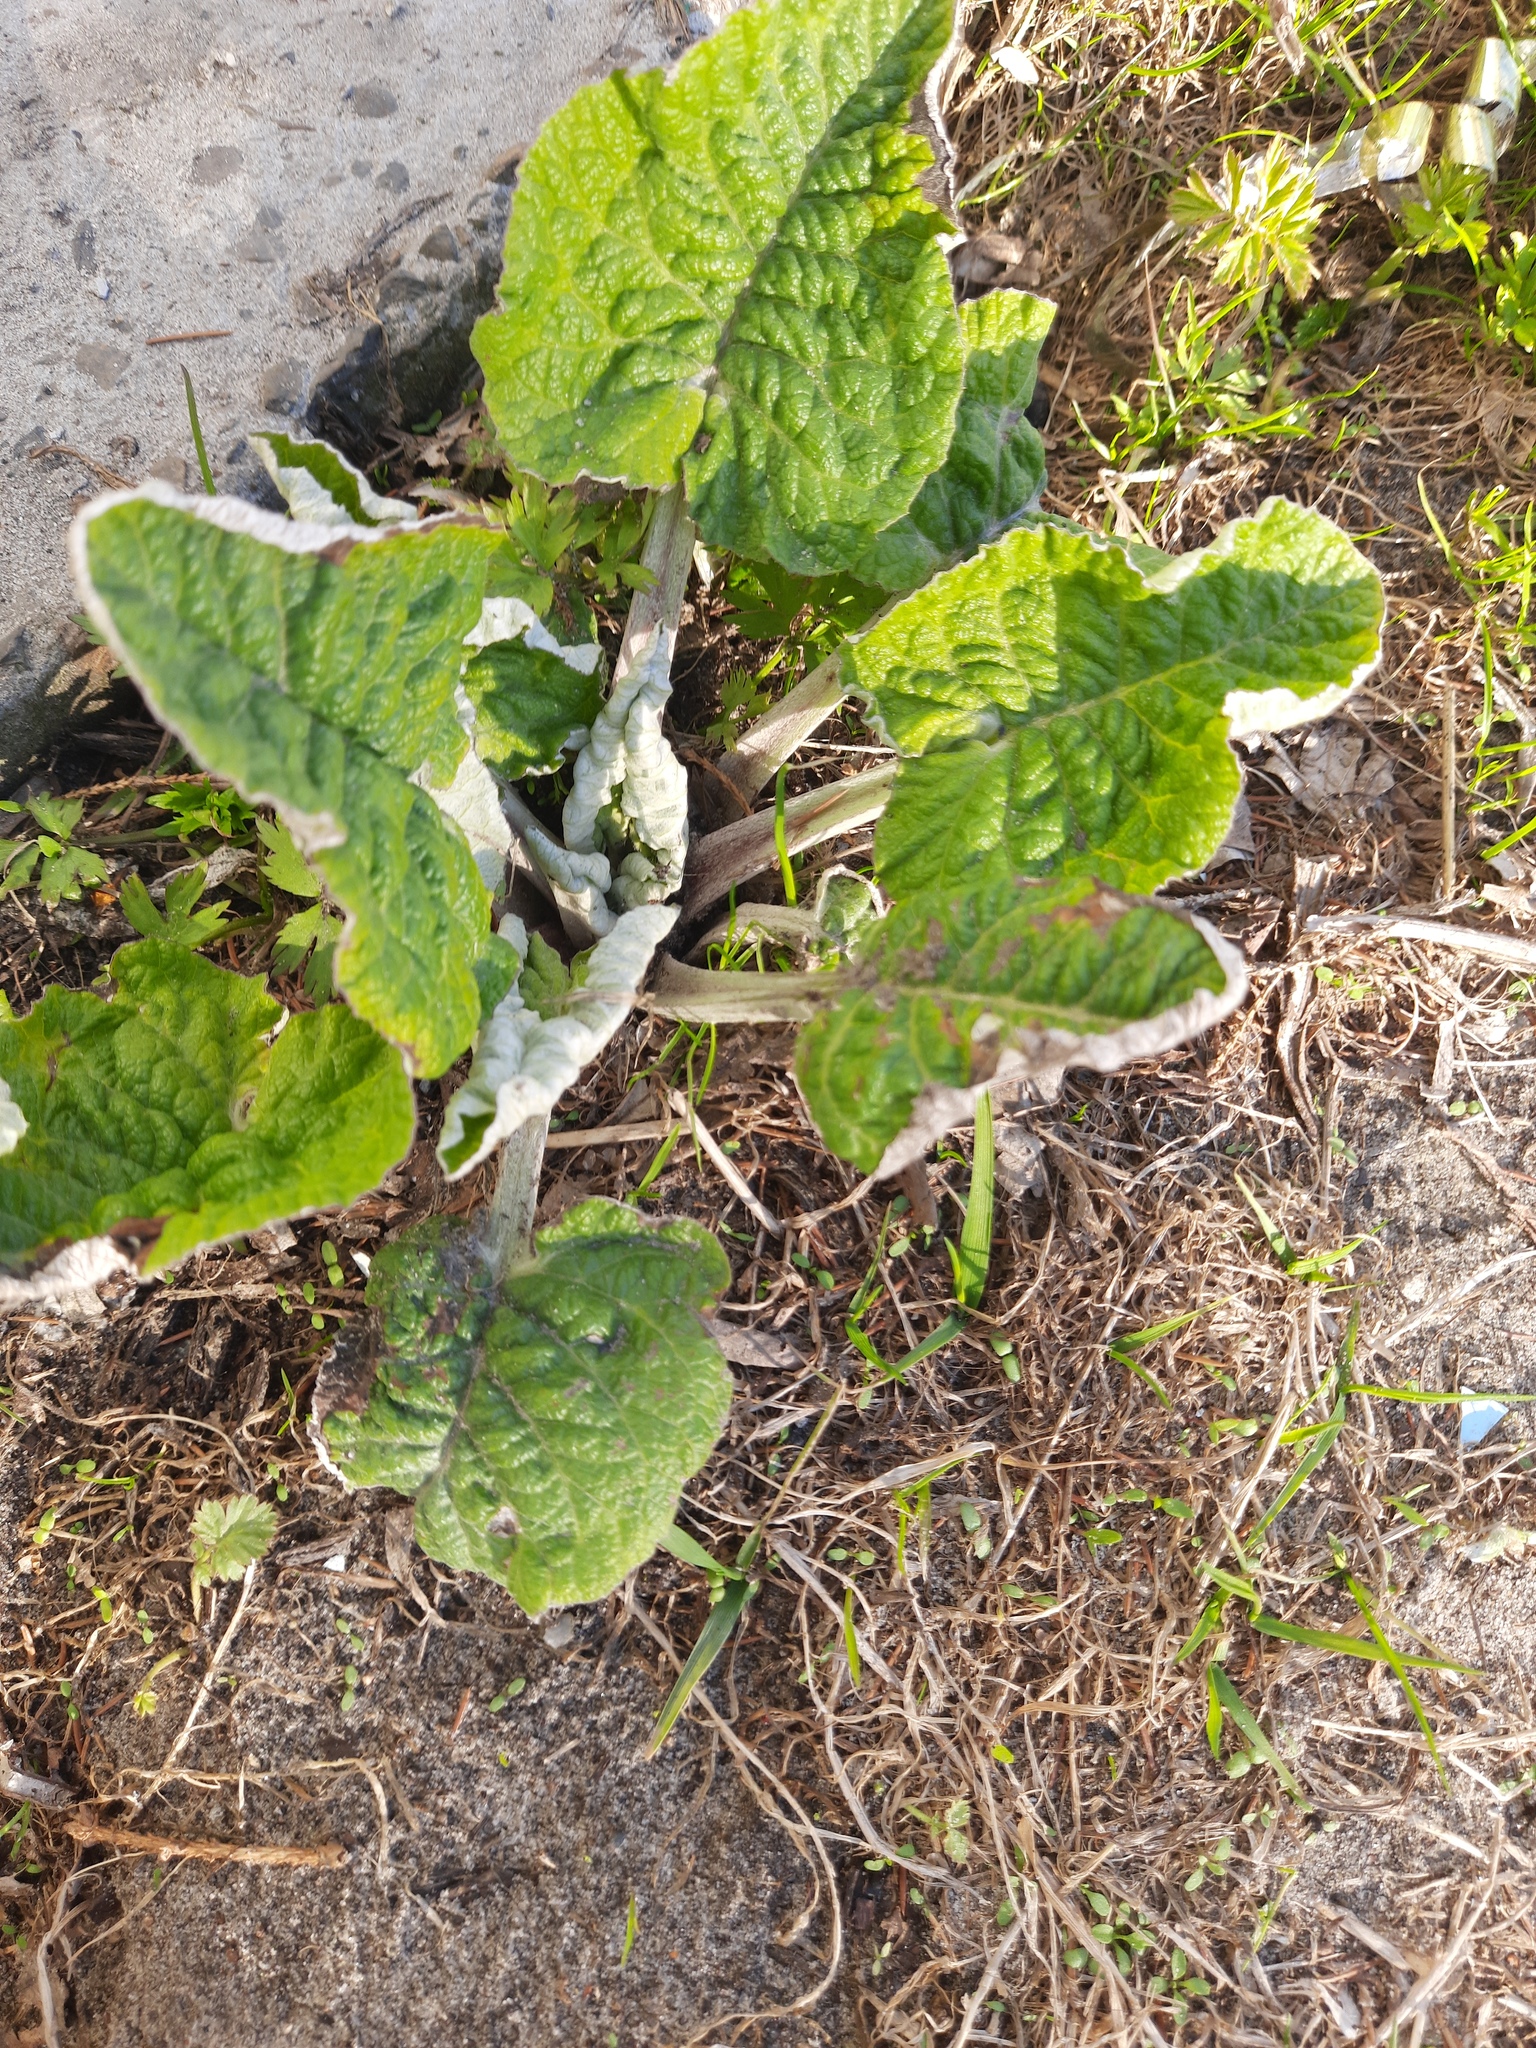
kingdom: Plantae
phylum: Tracheophyta
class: Magnoliopsida
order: Asterales
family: Asteraceae
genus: Arctium
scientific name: Arctium tomentosum
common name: Woolly burdock
